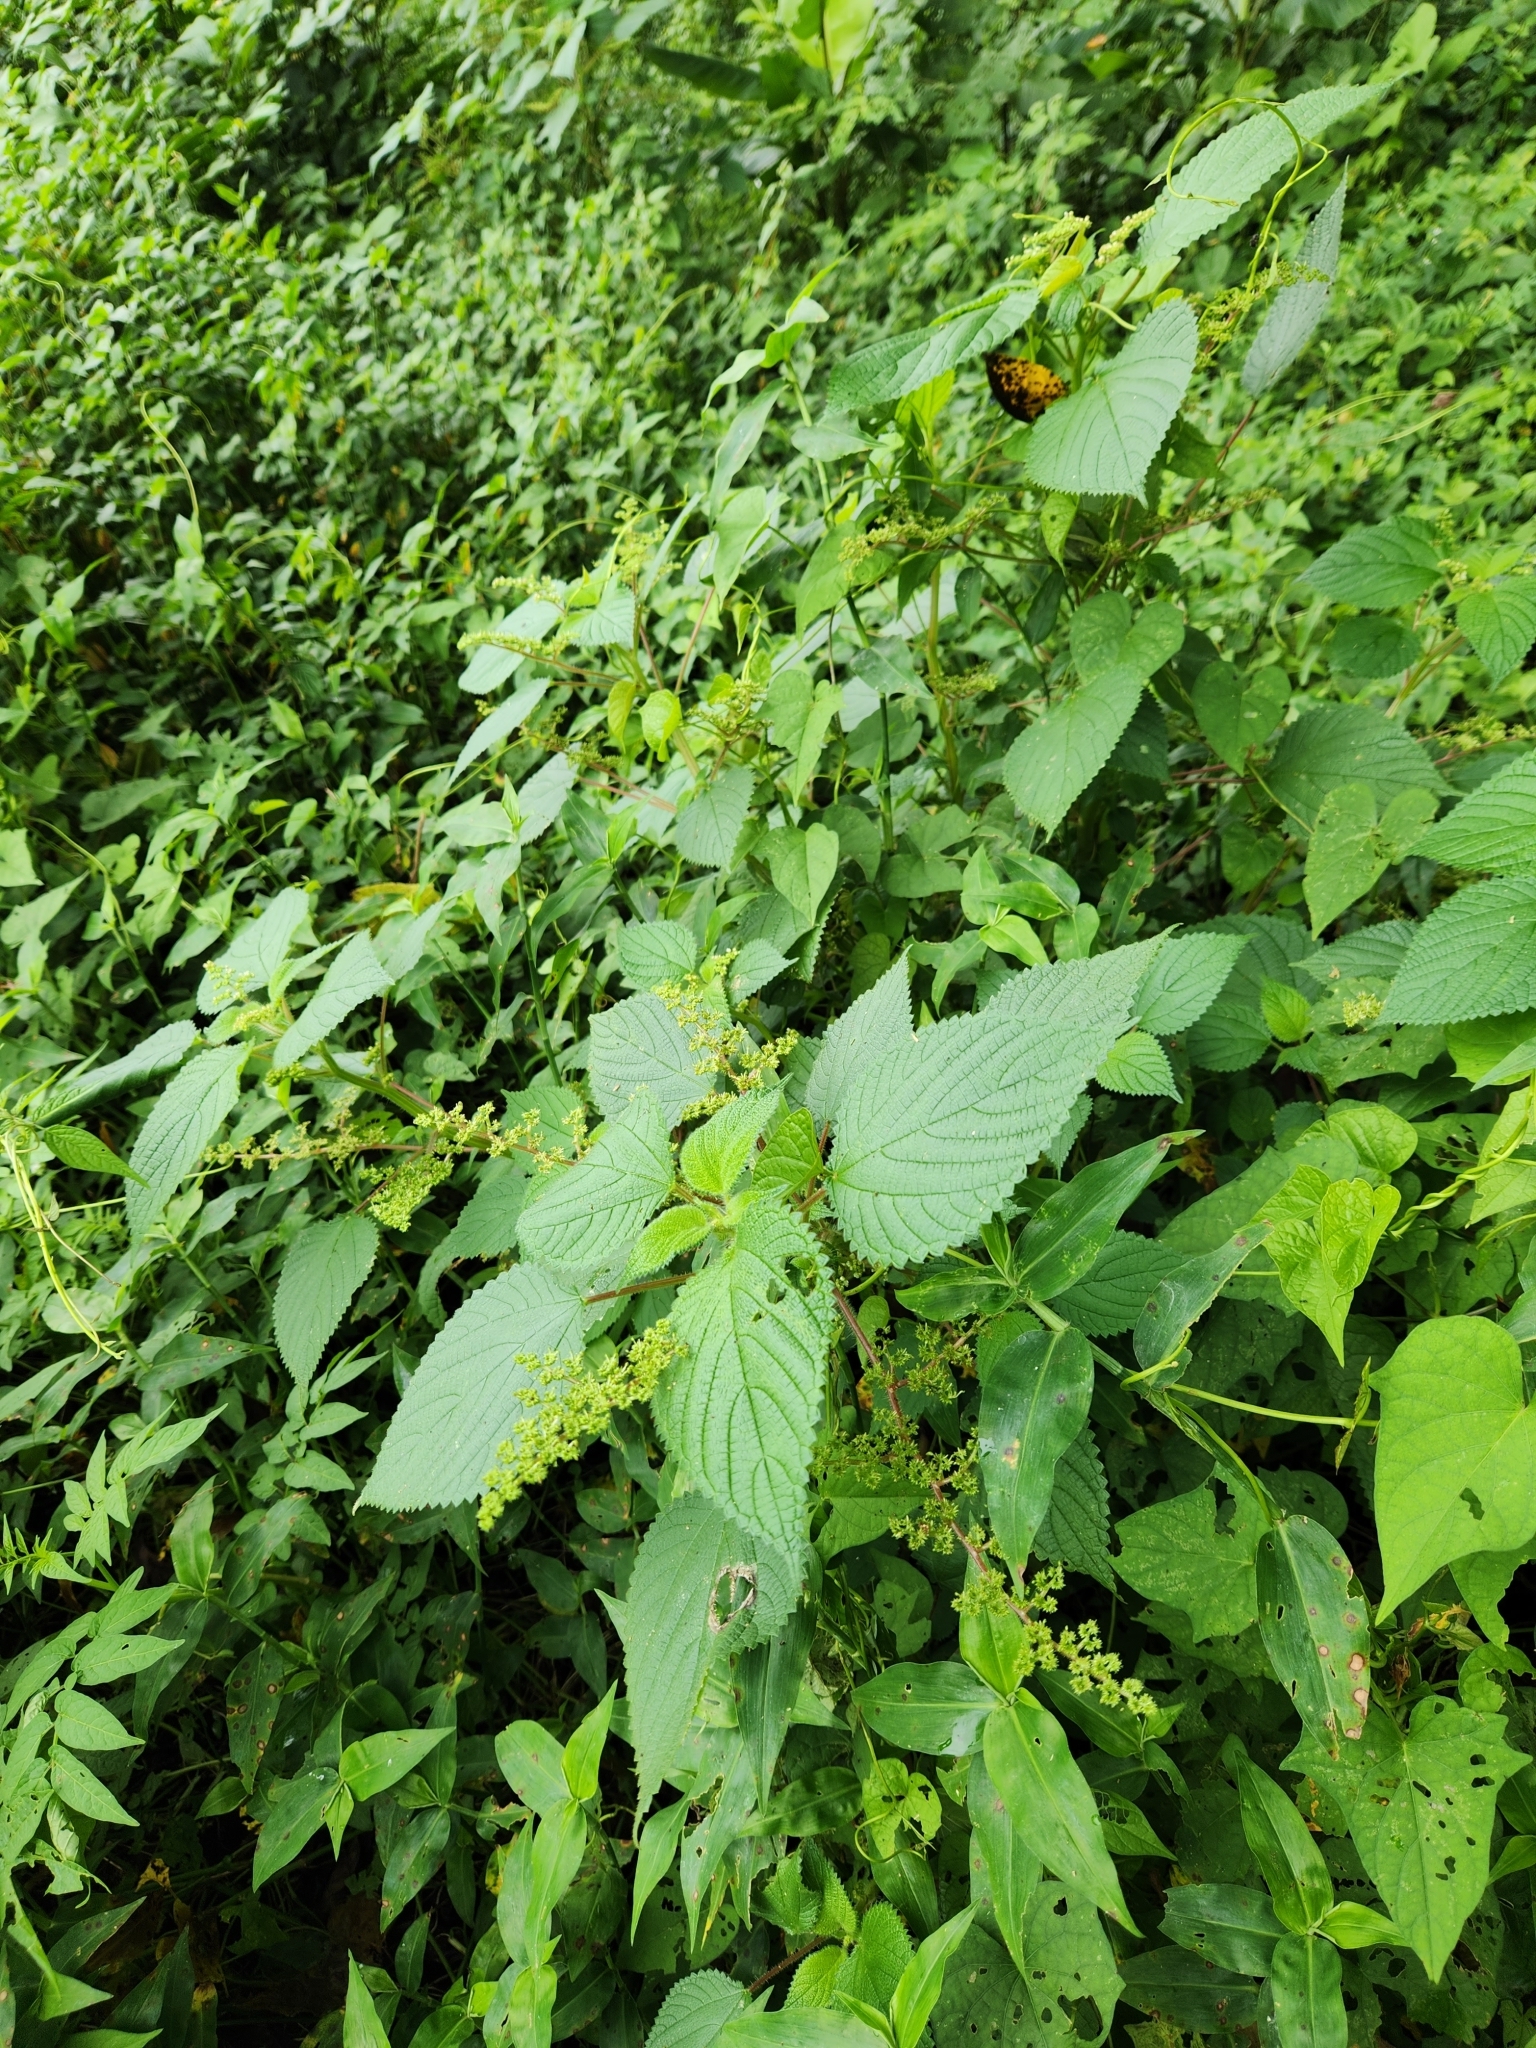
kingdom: Plantae
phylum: Tracheophyta
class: Magnoliopsida
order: Rosales
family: Urticaceae
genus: Laportea
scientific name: Laportea aestuans
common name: West indian woodnettle
